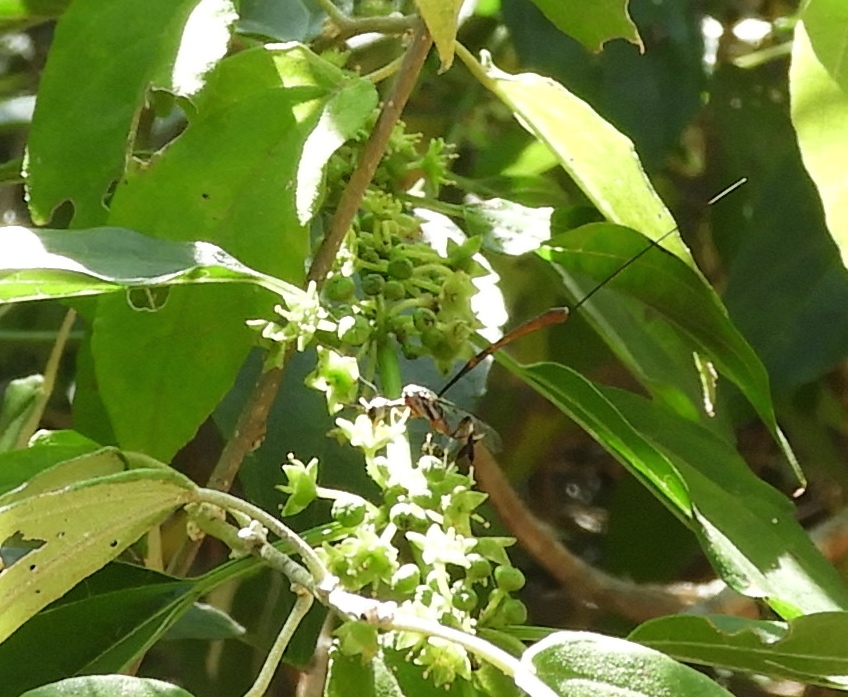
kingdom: Animalia
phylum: Arthropoda
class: Insecta
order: Hymenoptera
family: Gasteruptiidae
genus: Gasteruption
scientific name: Gasteruption
